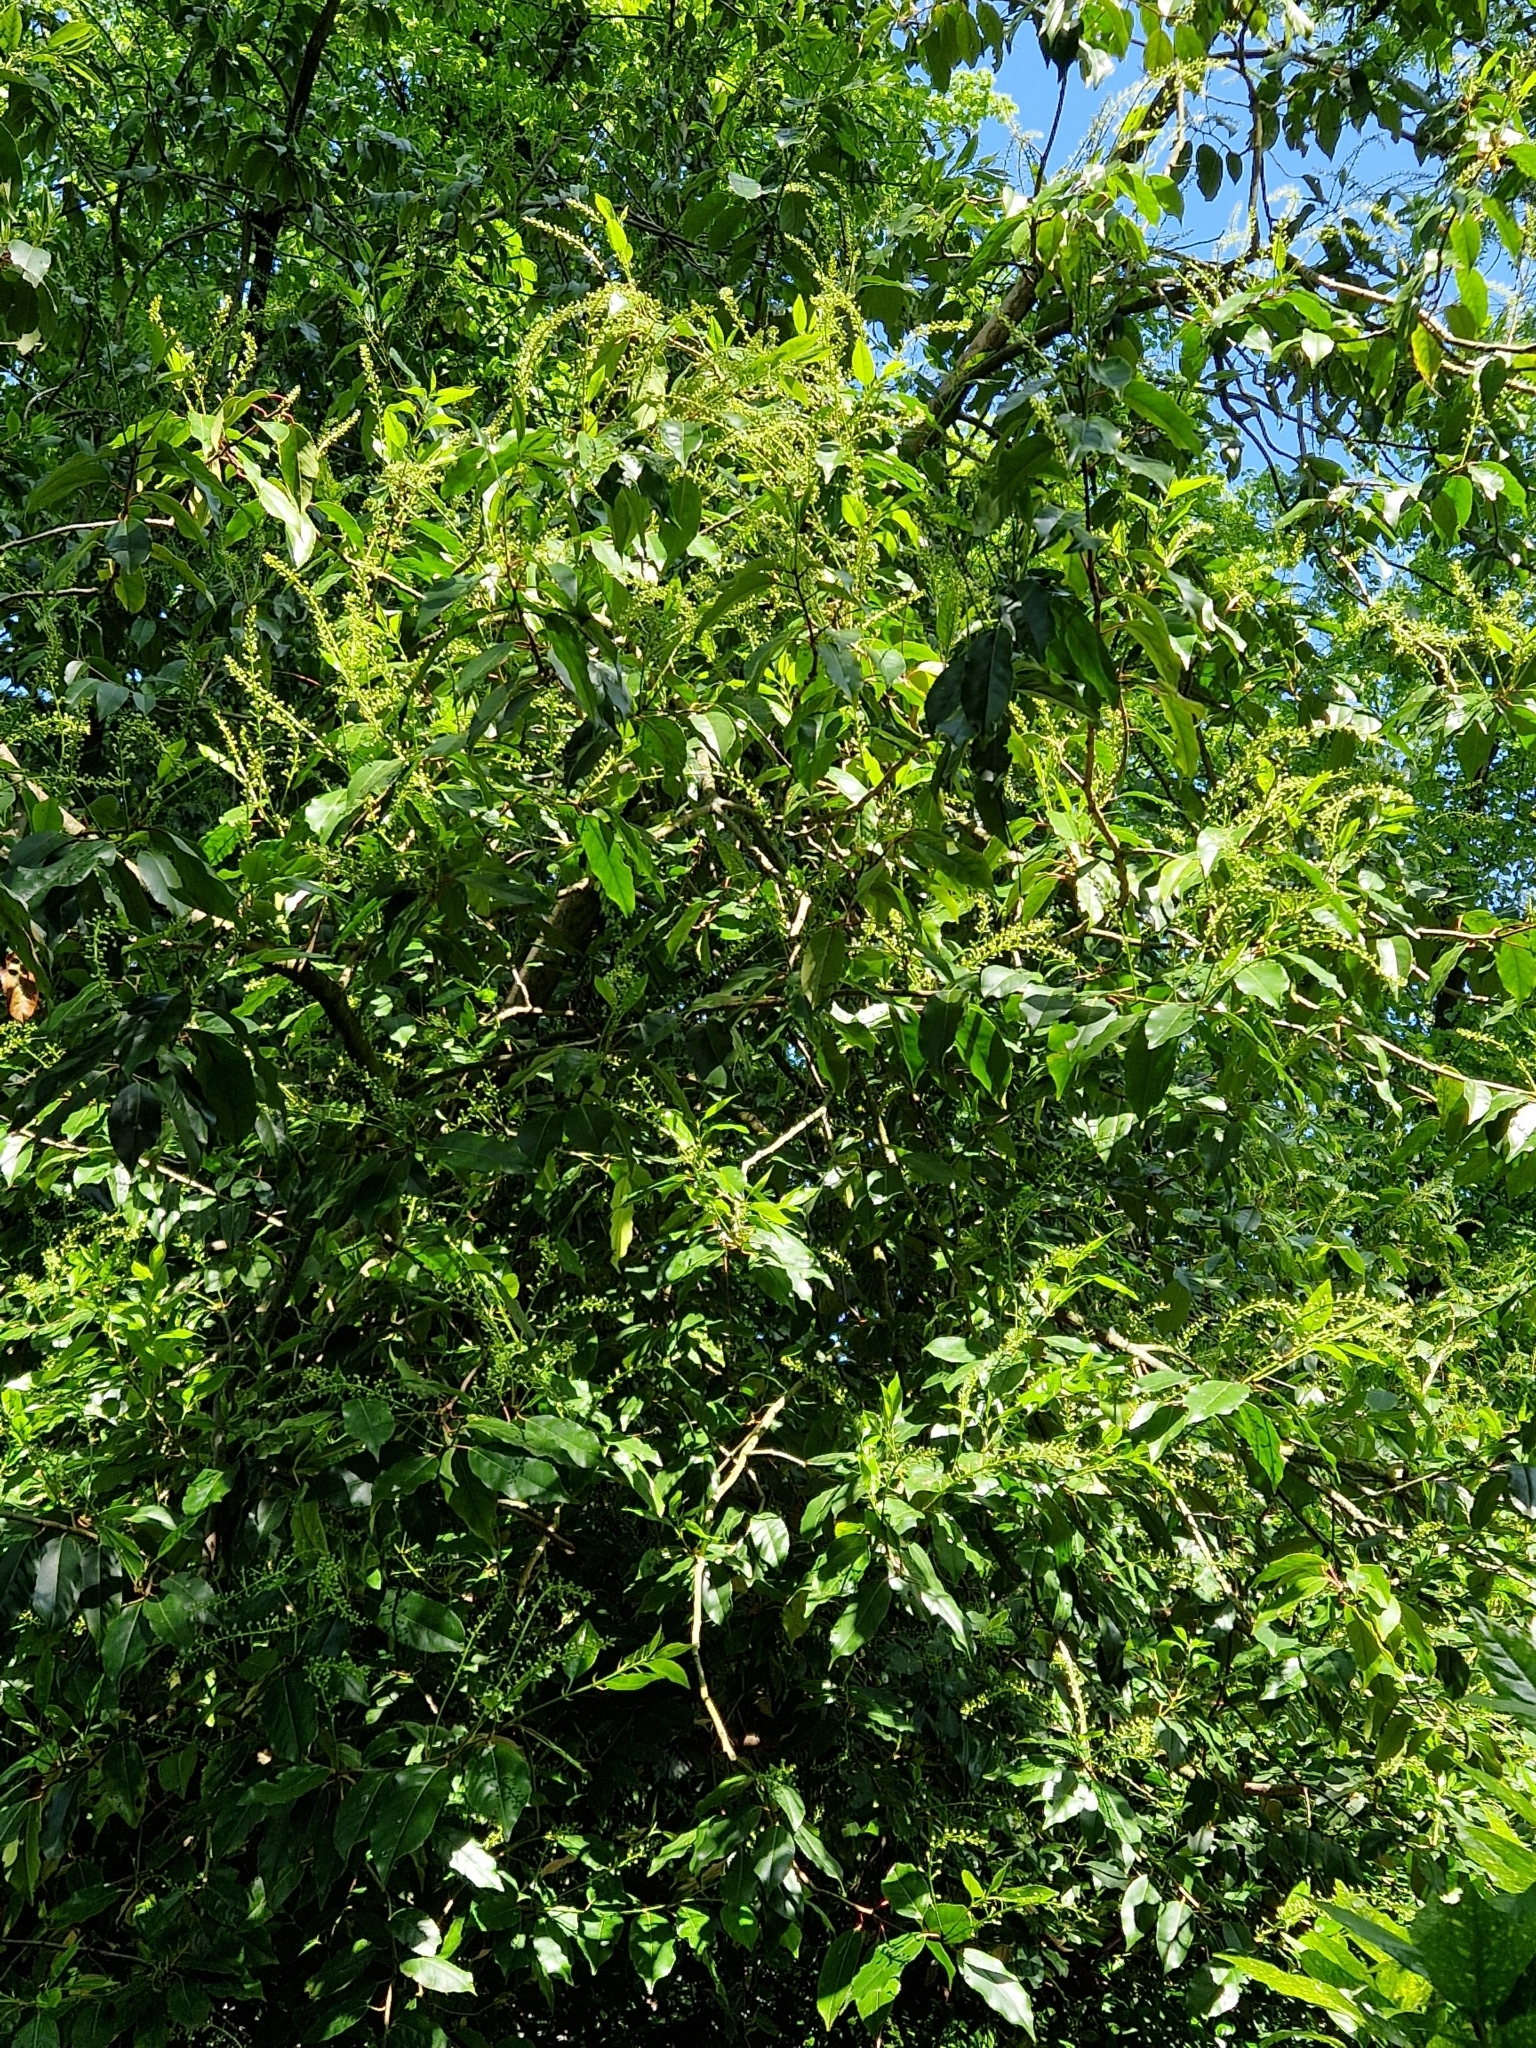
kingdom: Plantae
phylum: Tracheophyta
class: Magnoliopsida
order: Rosales
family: Rosaceae
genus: Prunus
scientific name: Prunus laurocerasus
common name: Cherry laurel
